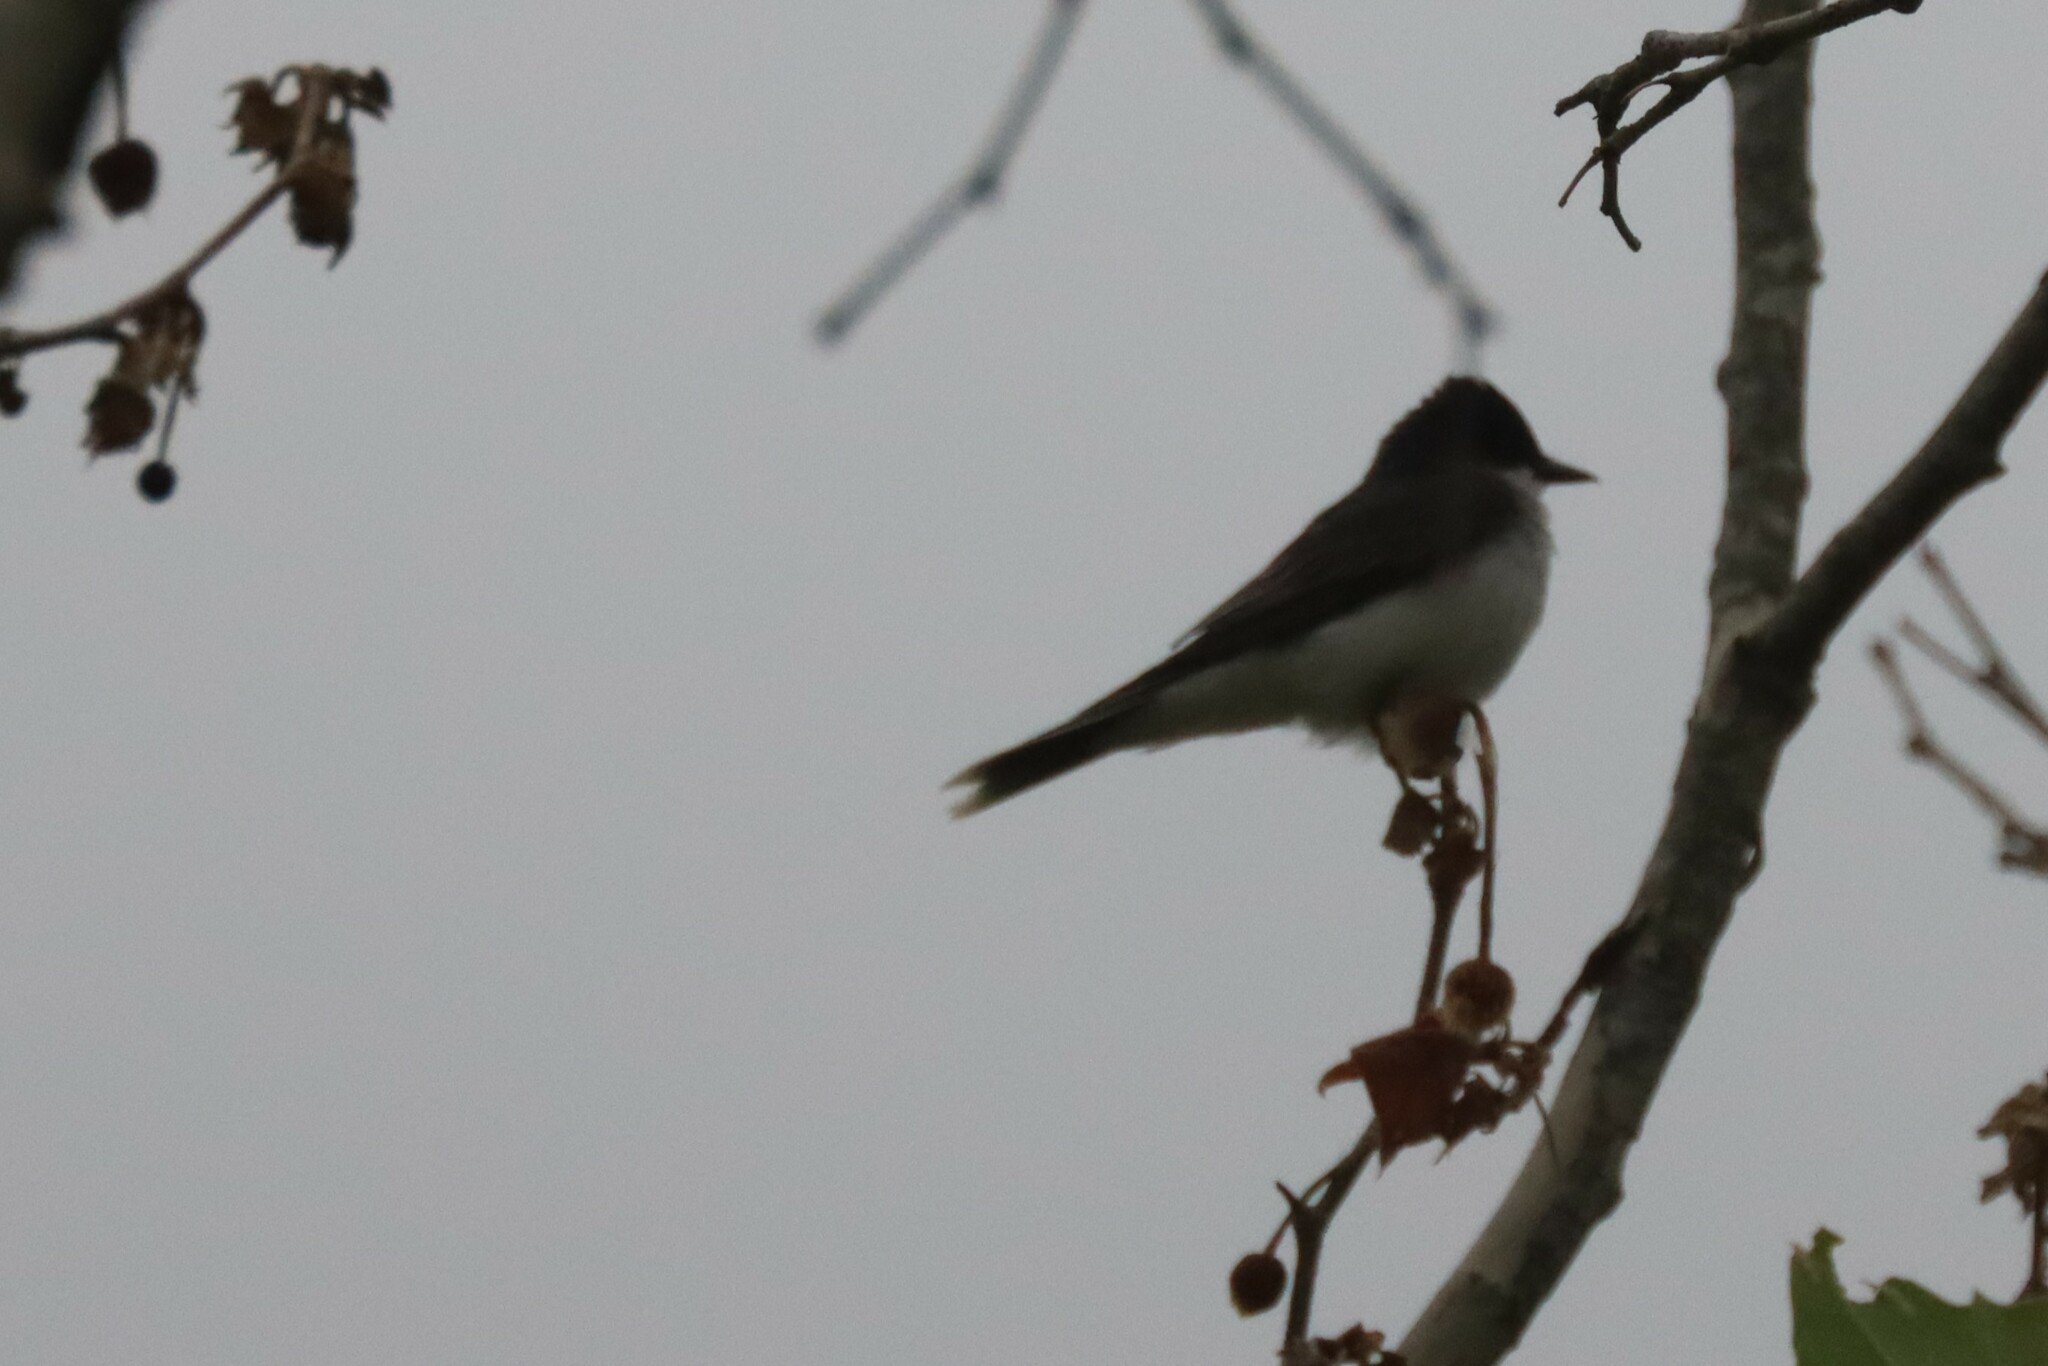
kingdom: Animalia
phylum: Chordata
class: Aves
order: Passeriformes
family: Tyrannidae
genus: Tyrannus
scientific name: Tyrannus tyrannus
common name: Eastern kingbird
